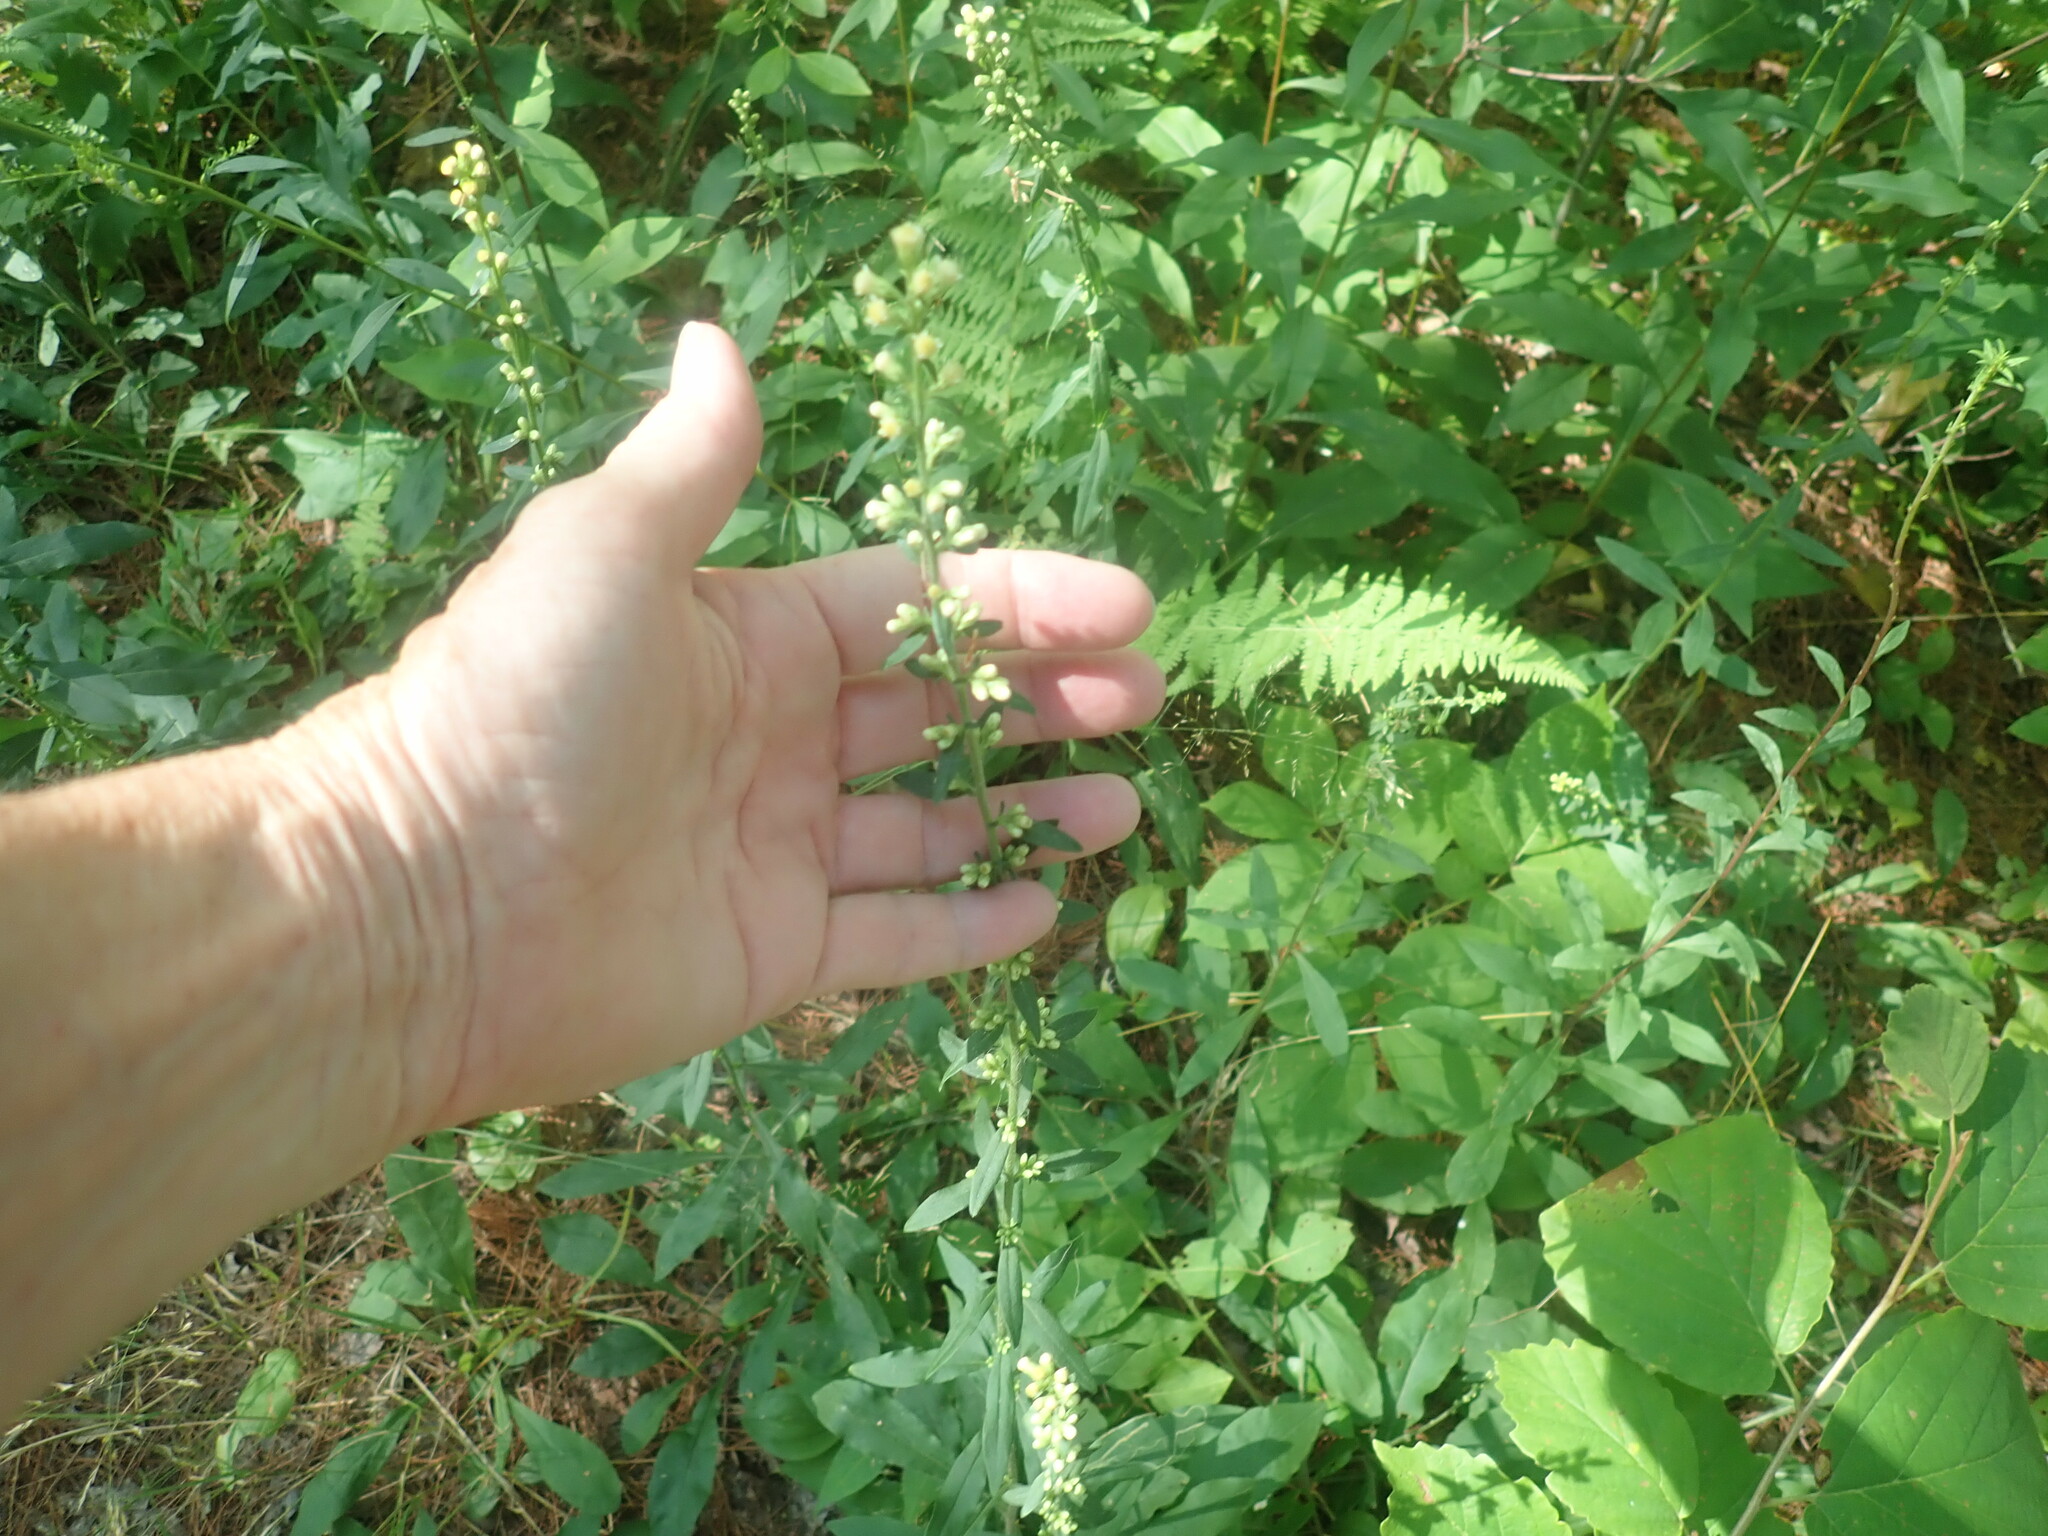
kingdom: Plantae
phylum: Tracheophyta
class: Magnoliopsida
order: Asterales
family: Asteraceae
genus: Solidago
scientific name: Solidago bicolor
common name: Silverrod
